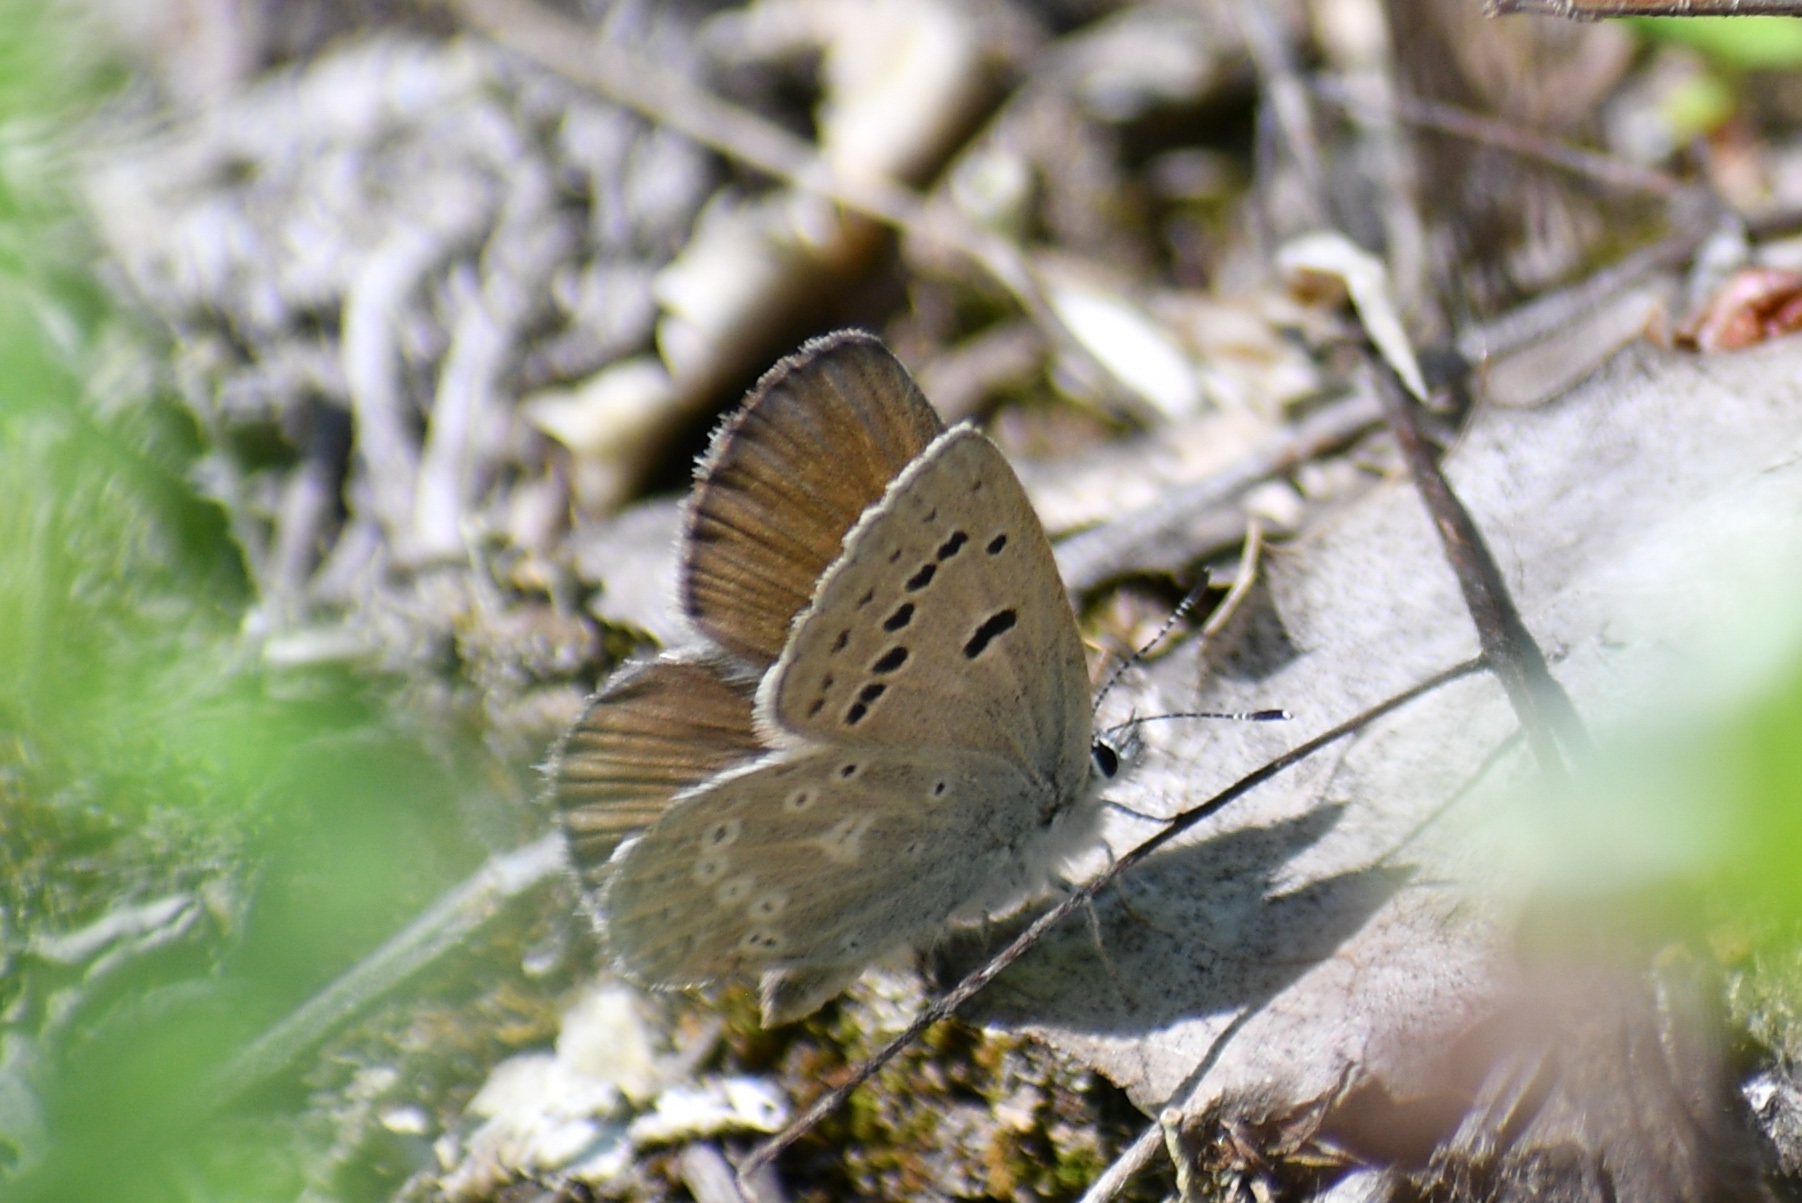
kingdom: Animalia
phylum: Arthropoda
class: Insecta
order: Lepidoptera
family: Lycaenidae
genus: Icaricia
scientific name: Icaricia icarioides
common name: Boisduval's blue
